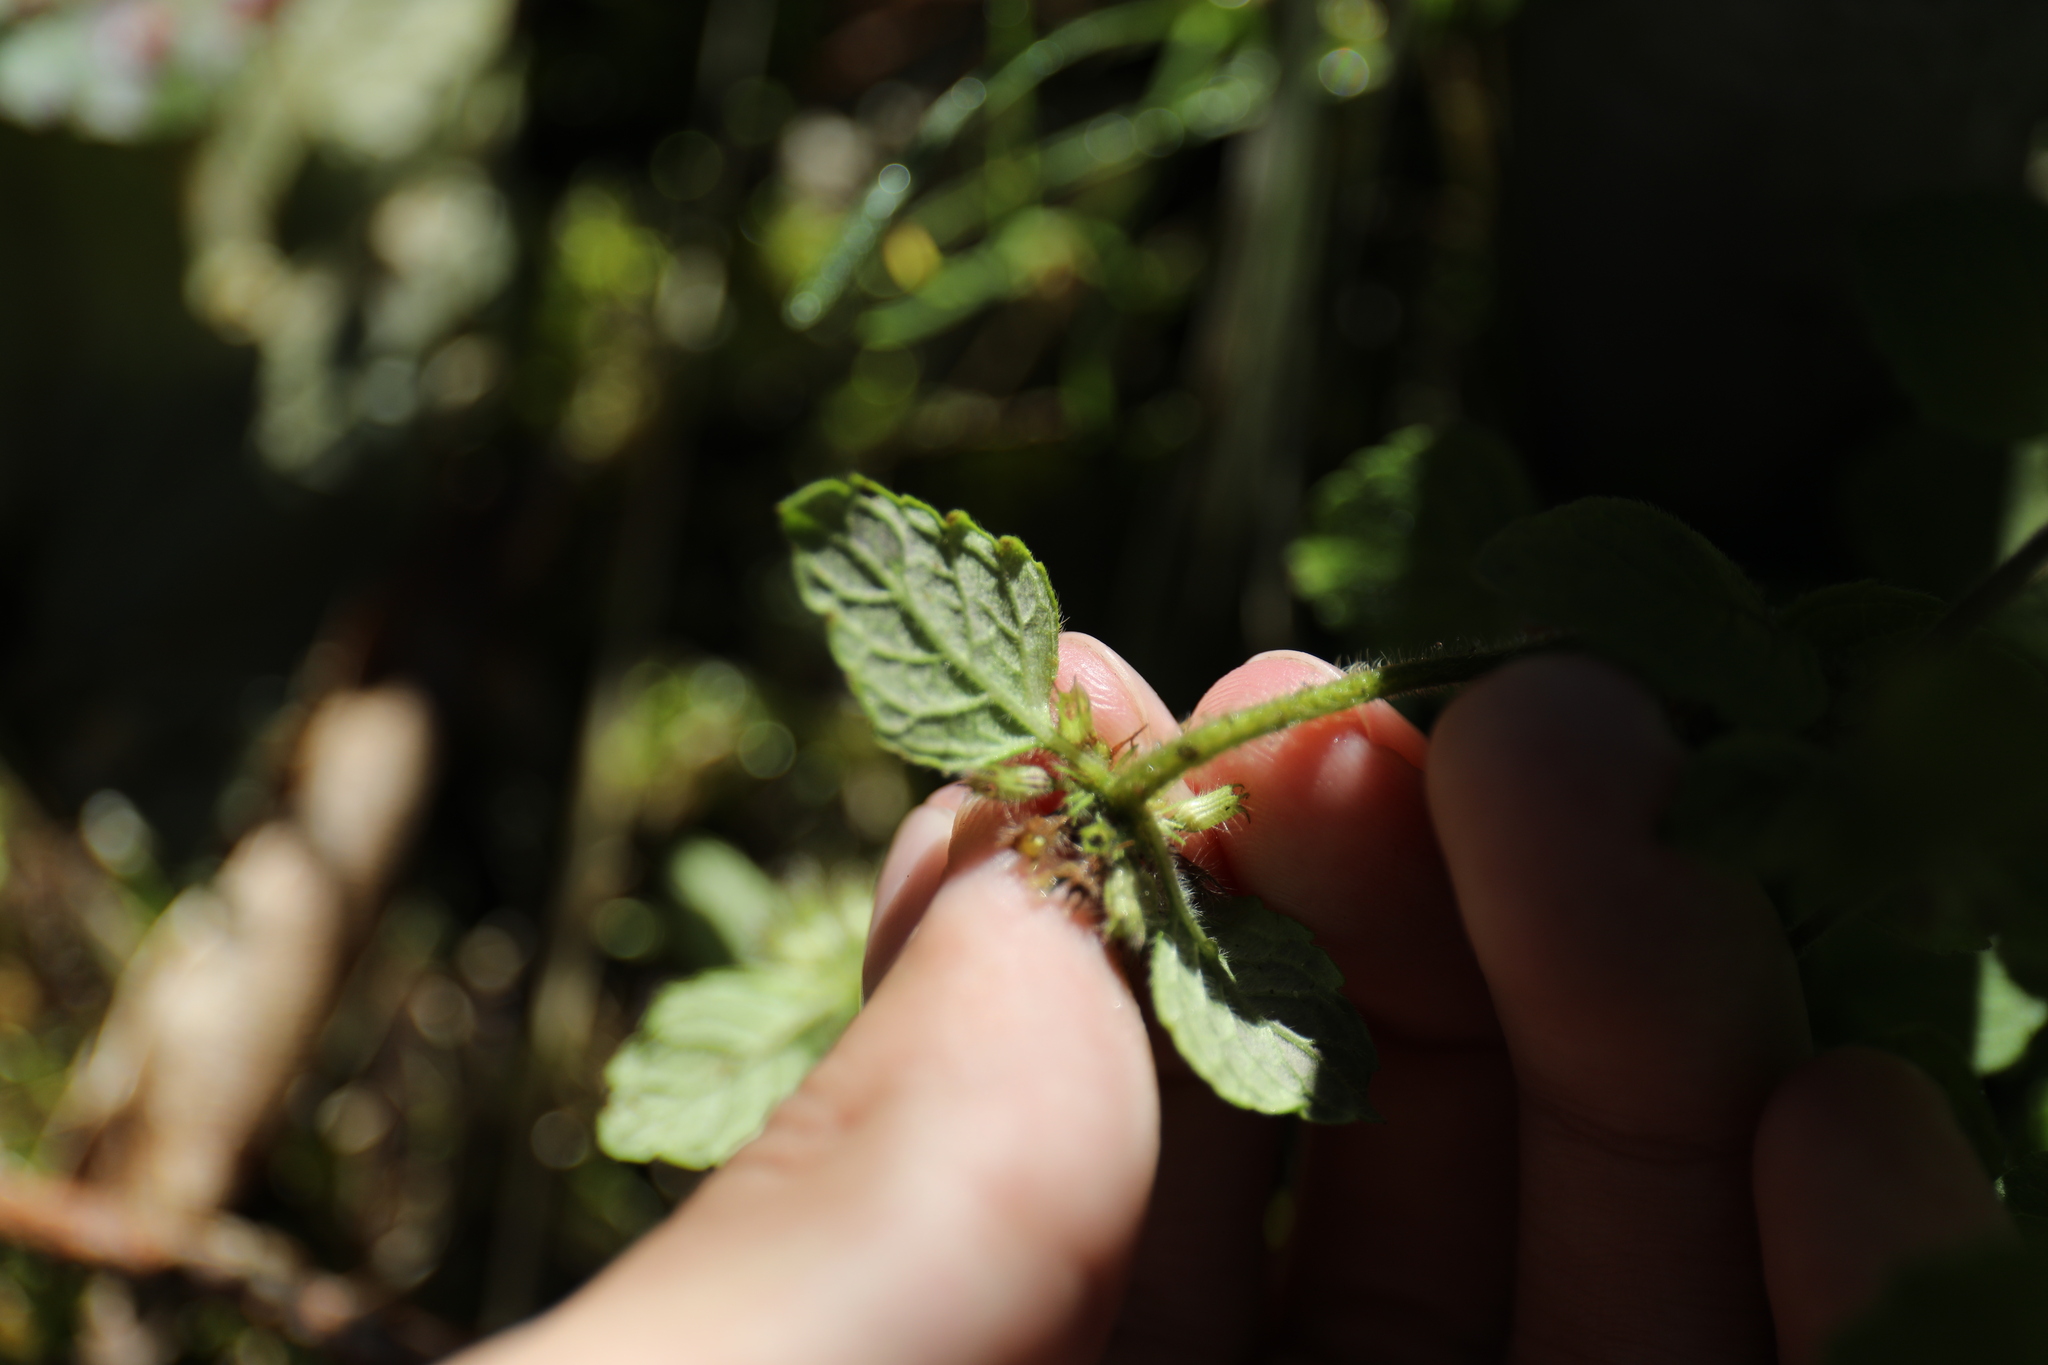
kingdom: Plantae
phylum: Tracheophyta
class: Magnoliopsida
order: Lamiales
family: Lamiaceae
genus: Clinopodium
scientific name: Clinopodium chinense
